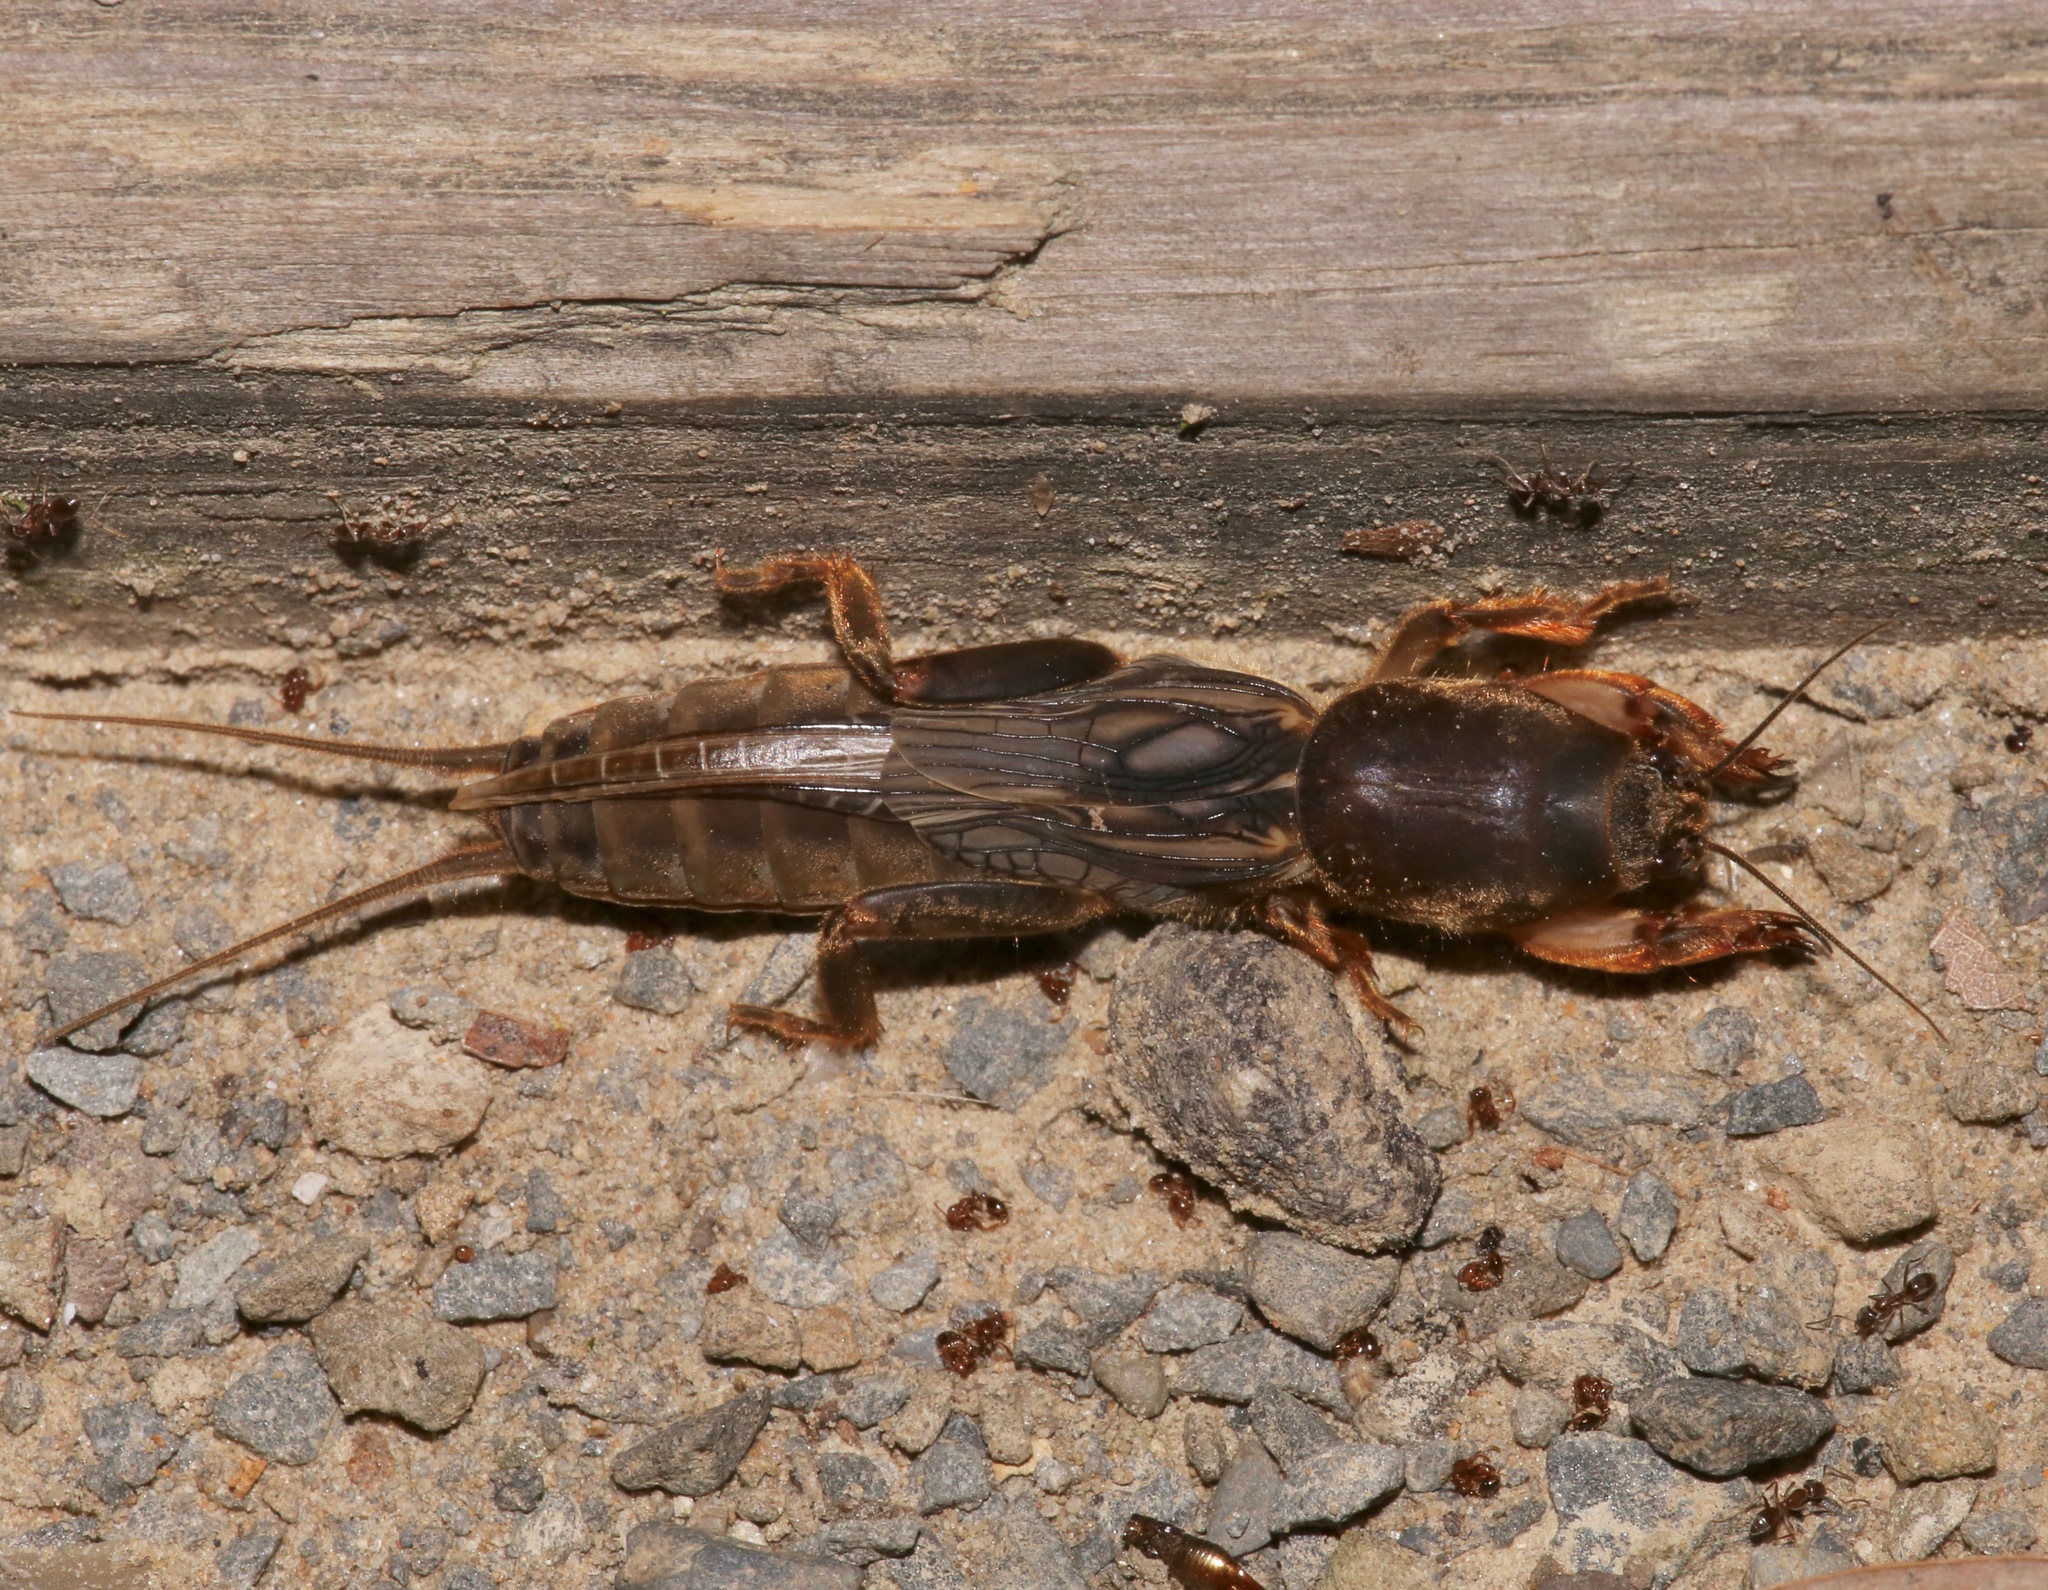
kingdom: Animalia
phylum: Arthropoda
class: Insecta
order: Orthoptera
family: Gryllotalpidae
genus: Neocurtilla
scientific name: Neocurtilla hexadactyla
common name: Northern mole cricket
